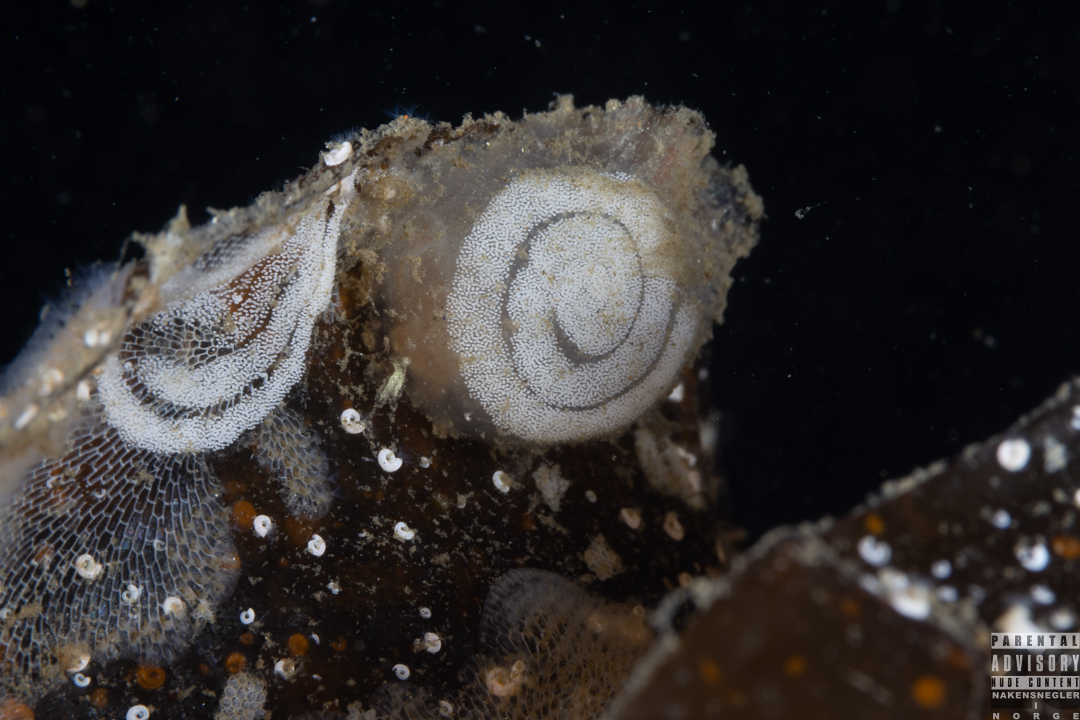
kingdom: Animalia
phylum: Mollusca
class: Gastropoda
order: Nudibranchia
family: Polyceridae
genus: Limacia
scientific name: Limacia clavigera
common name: Orange-clubbed sea slug
